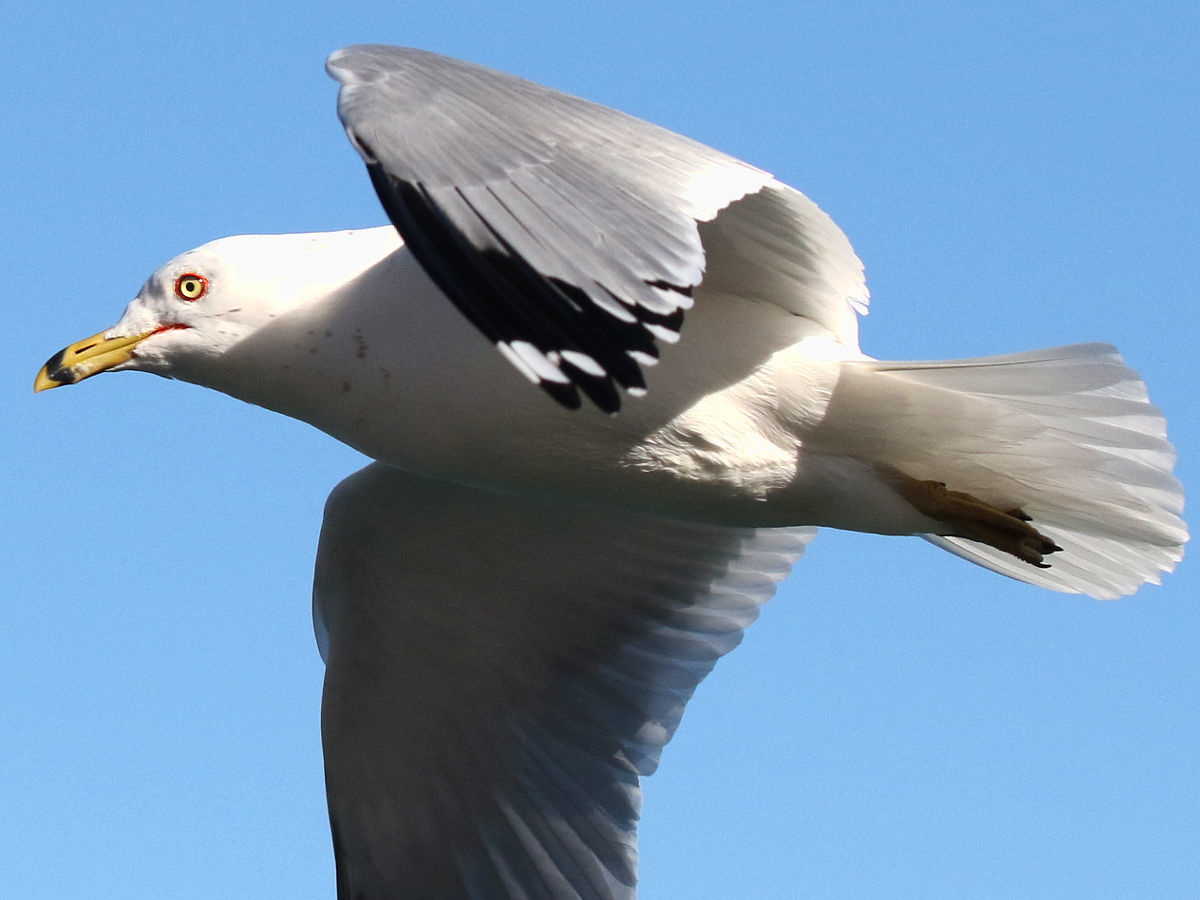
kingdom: Animalia
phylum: Chordata
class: Aves
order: Charadriiformes
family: Laridae
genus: Larus
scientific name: Larus delawarensis
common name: Ring-billed gull
